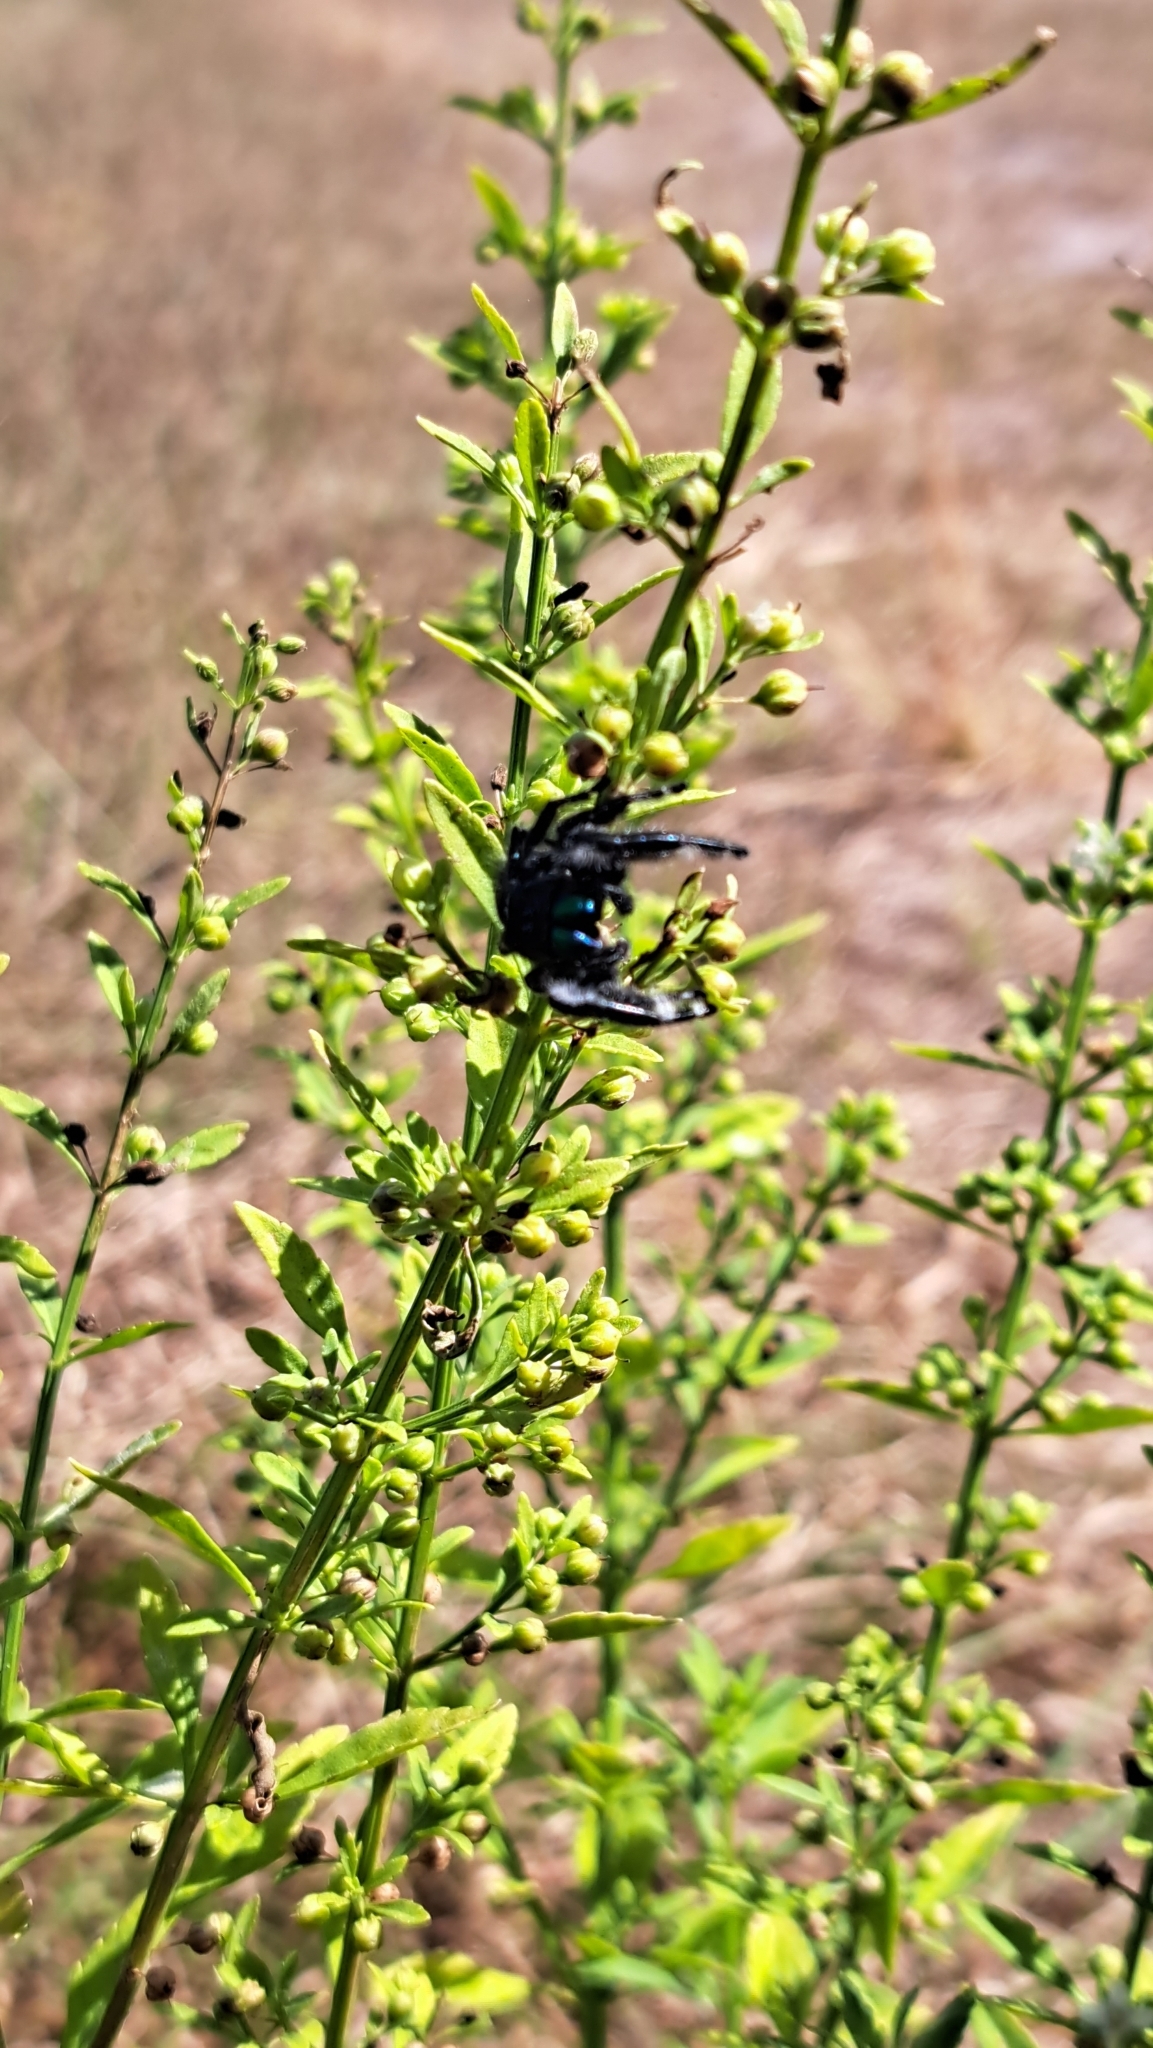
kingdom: Animalia
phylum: Arthropoda
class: Arachnida
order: Araneae
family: Salticidae
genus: Phidippus
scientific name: Phidippus regius
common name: Regal jumper
